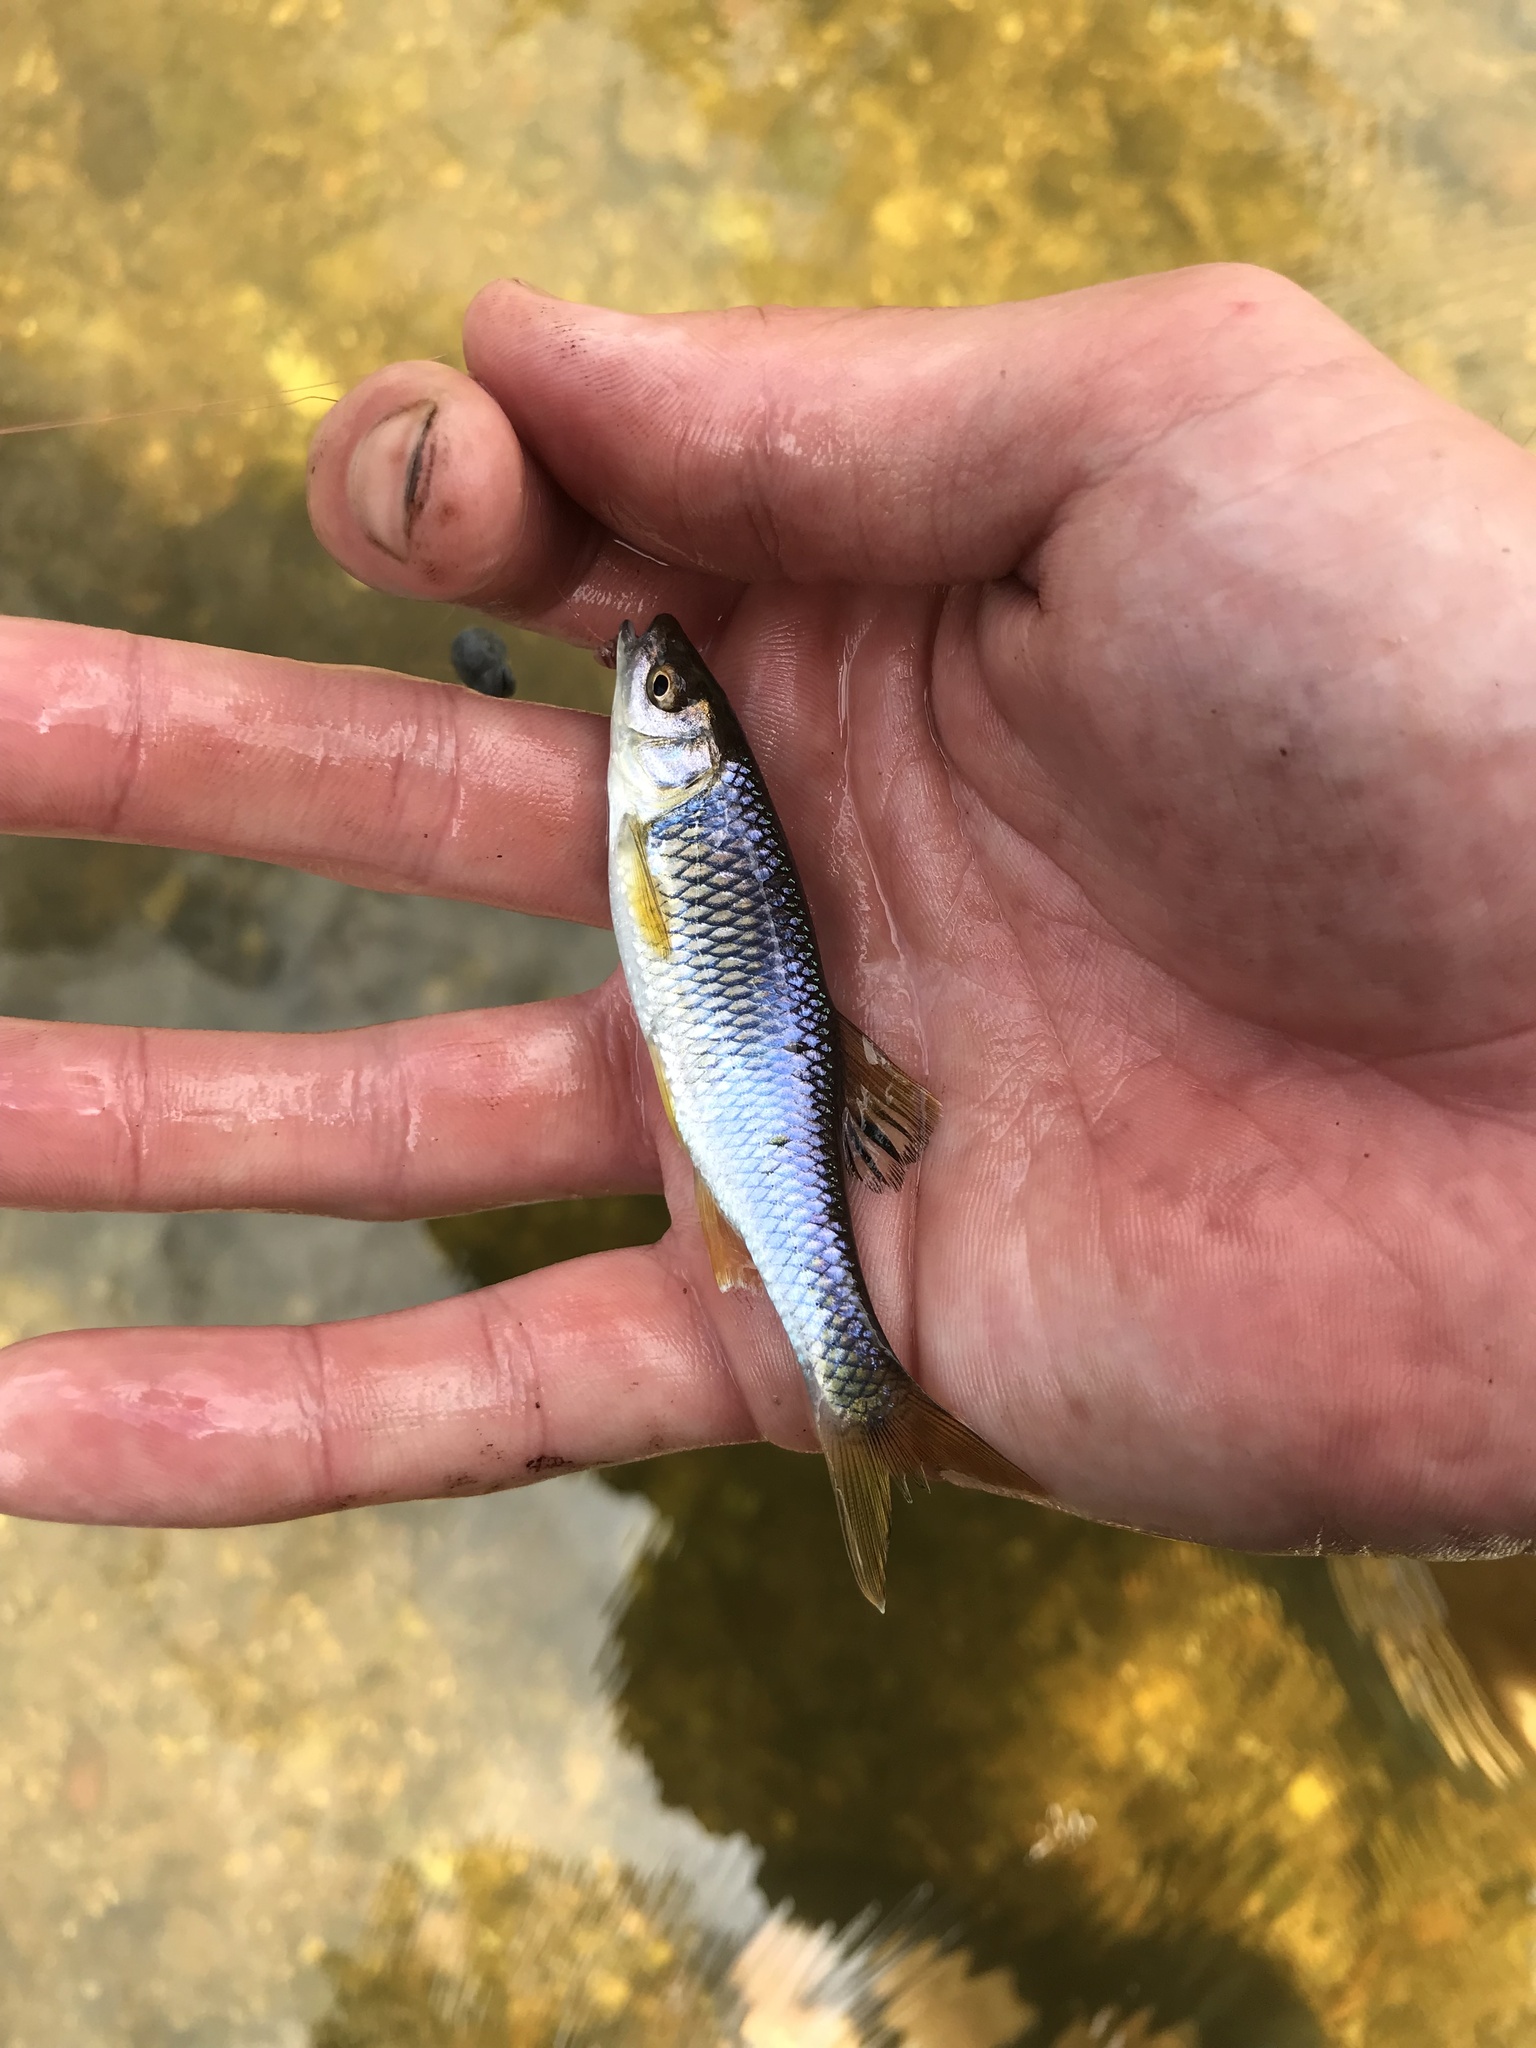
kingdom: Animalia
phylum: Chordata
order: Cypriniformes
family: Cyprinidae
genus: Cyprinella
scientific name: Cyprinella spiloptera
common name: Spotfin shiner
